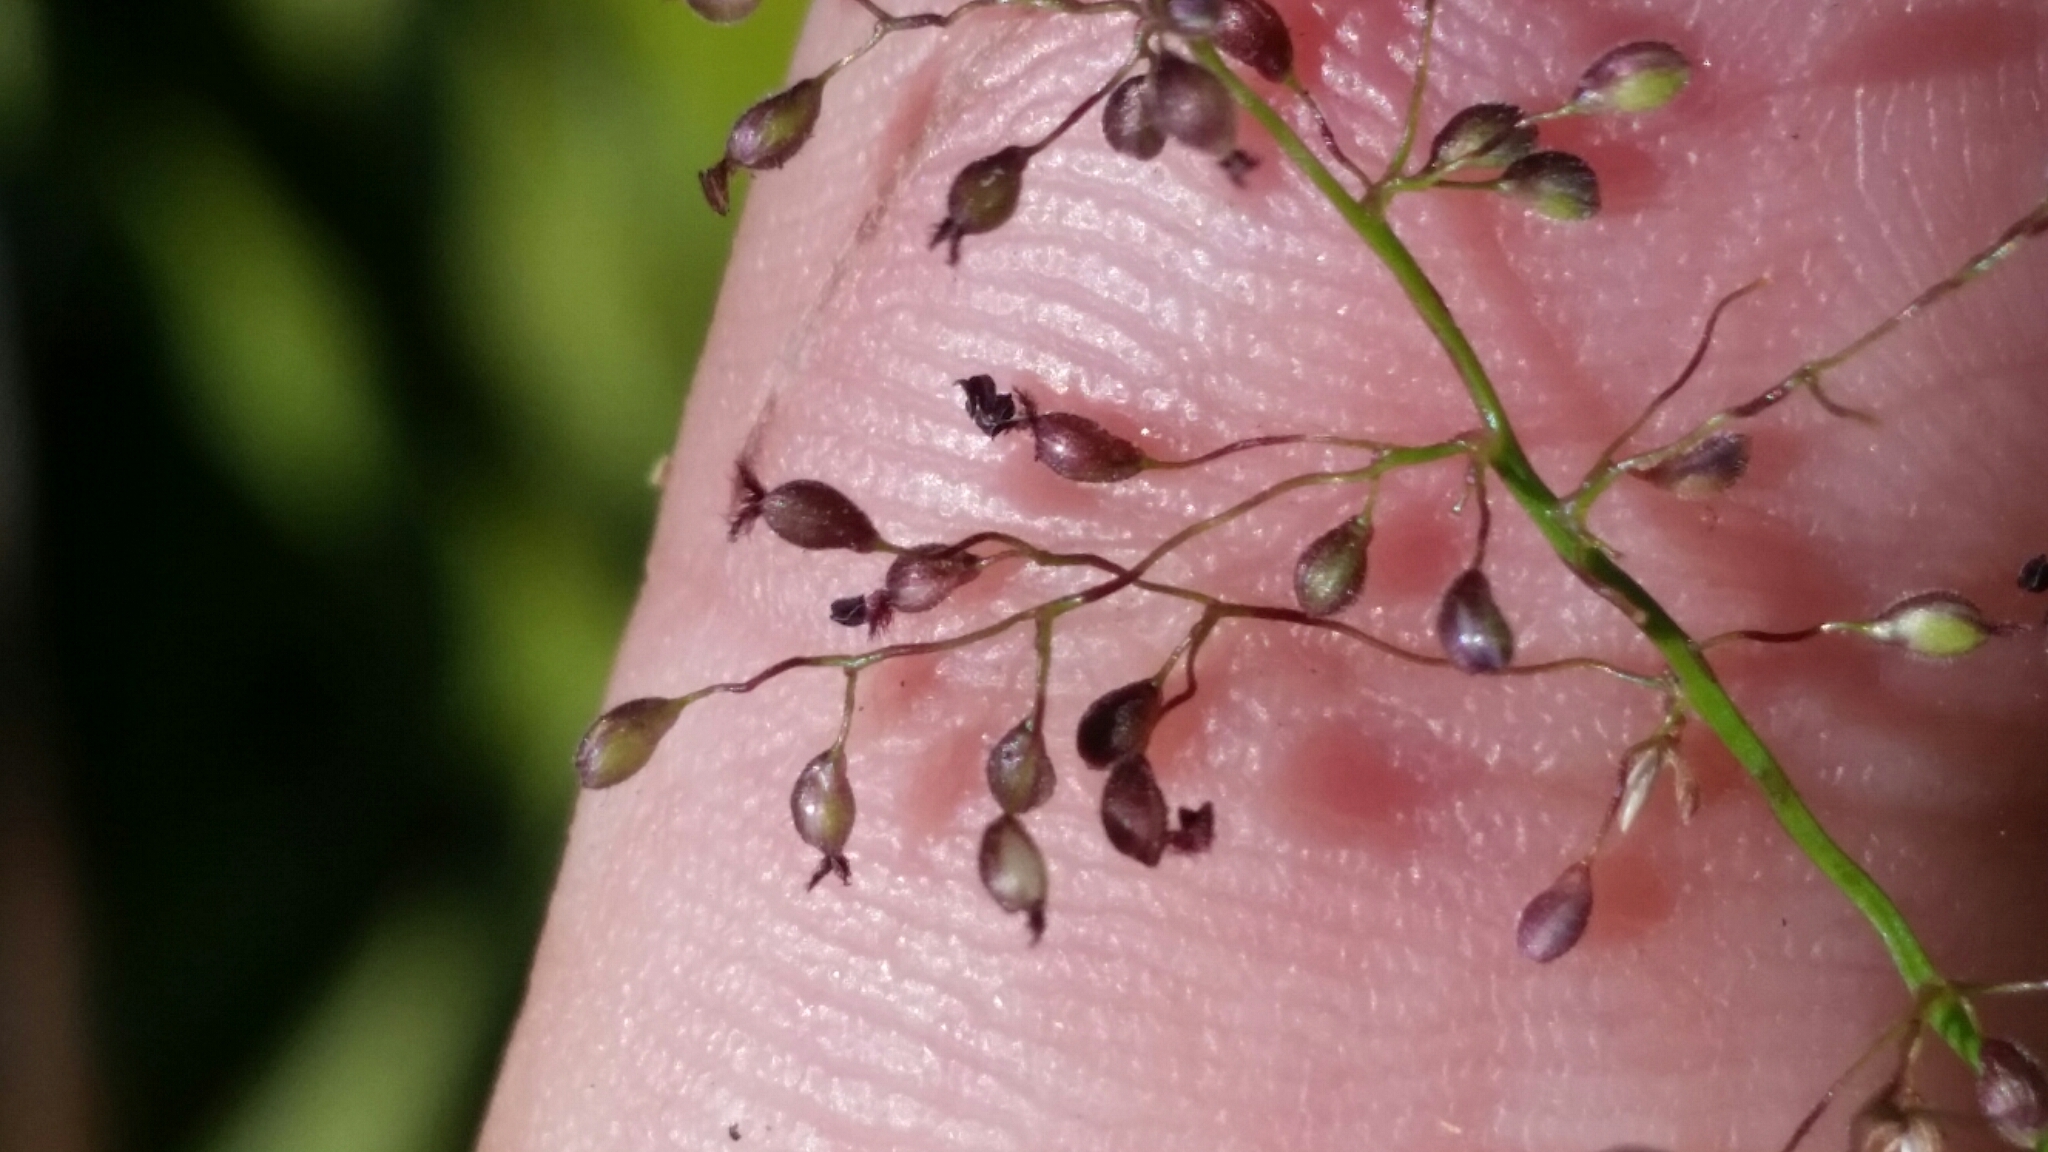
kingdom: Plantae
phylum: Tracheophyta
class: Liliopsida
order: Poales
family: Poaceae
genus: Dichanthelium
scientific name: Dichanthelium tenue
